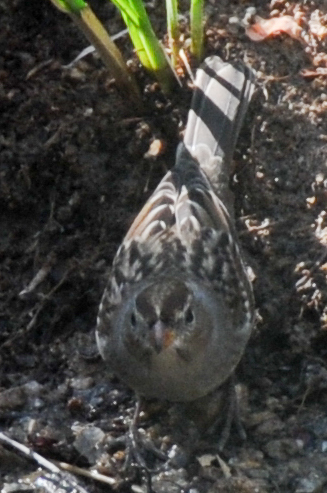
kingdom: Animalia
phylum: Chordata
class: Aves
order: Passeriformes
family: Passerellidae
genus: Zonotrichia
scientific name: Zonotrichia leucophrys
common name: White-crowned sparrow
